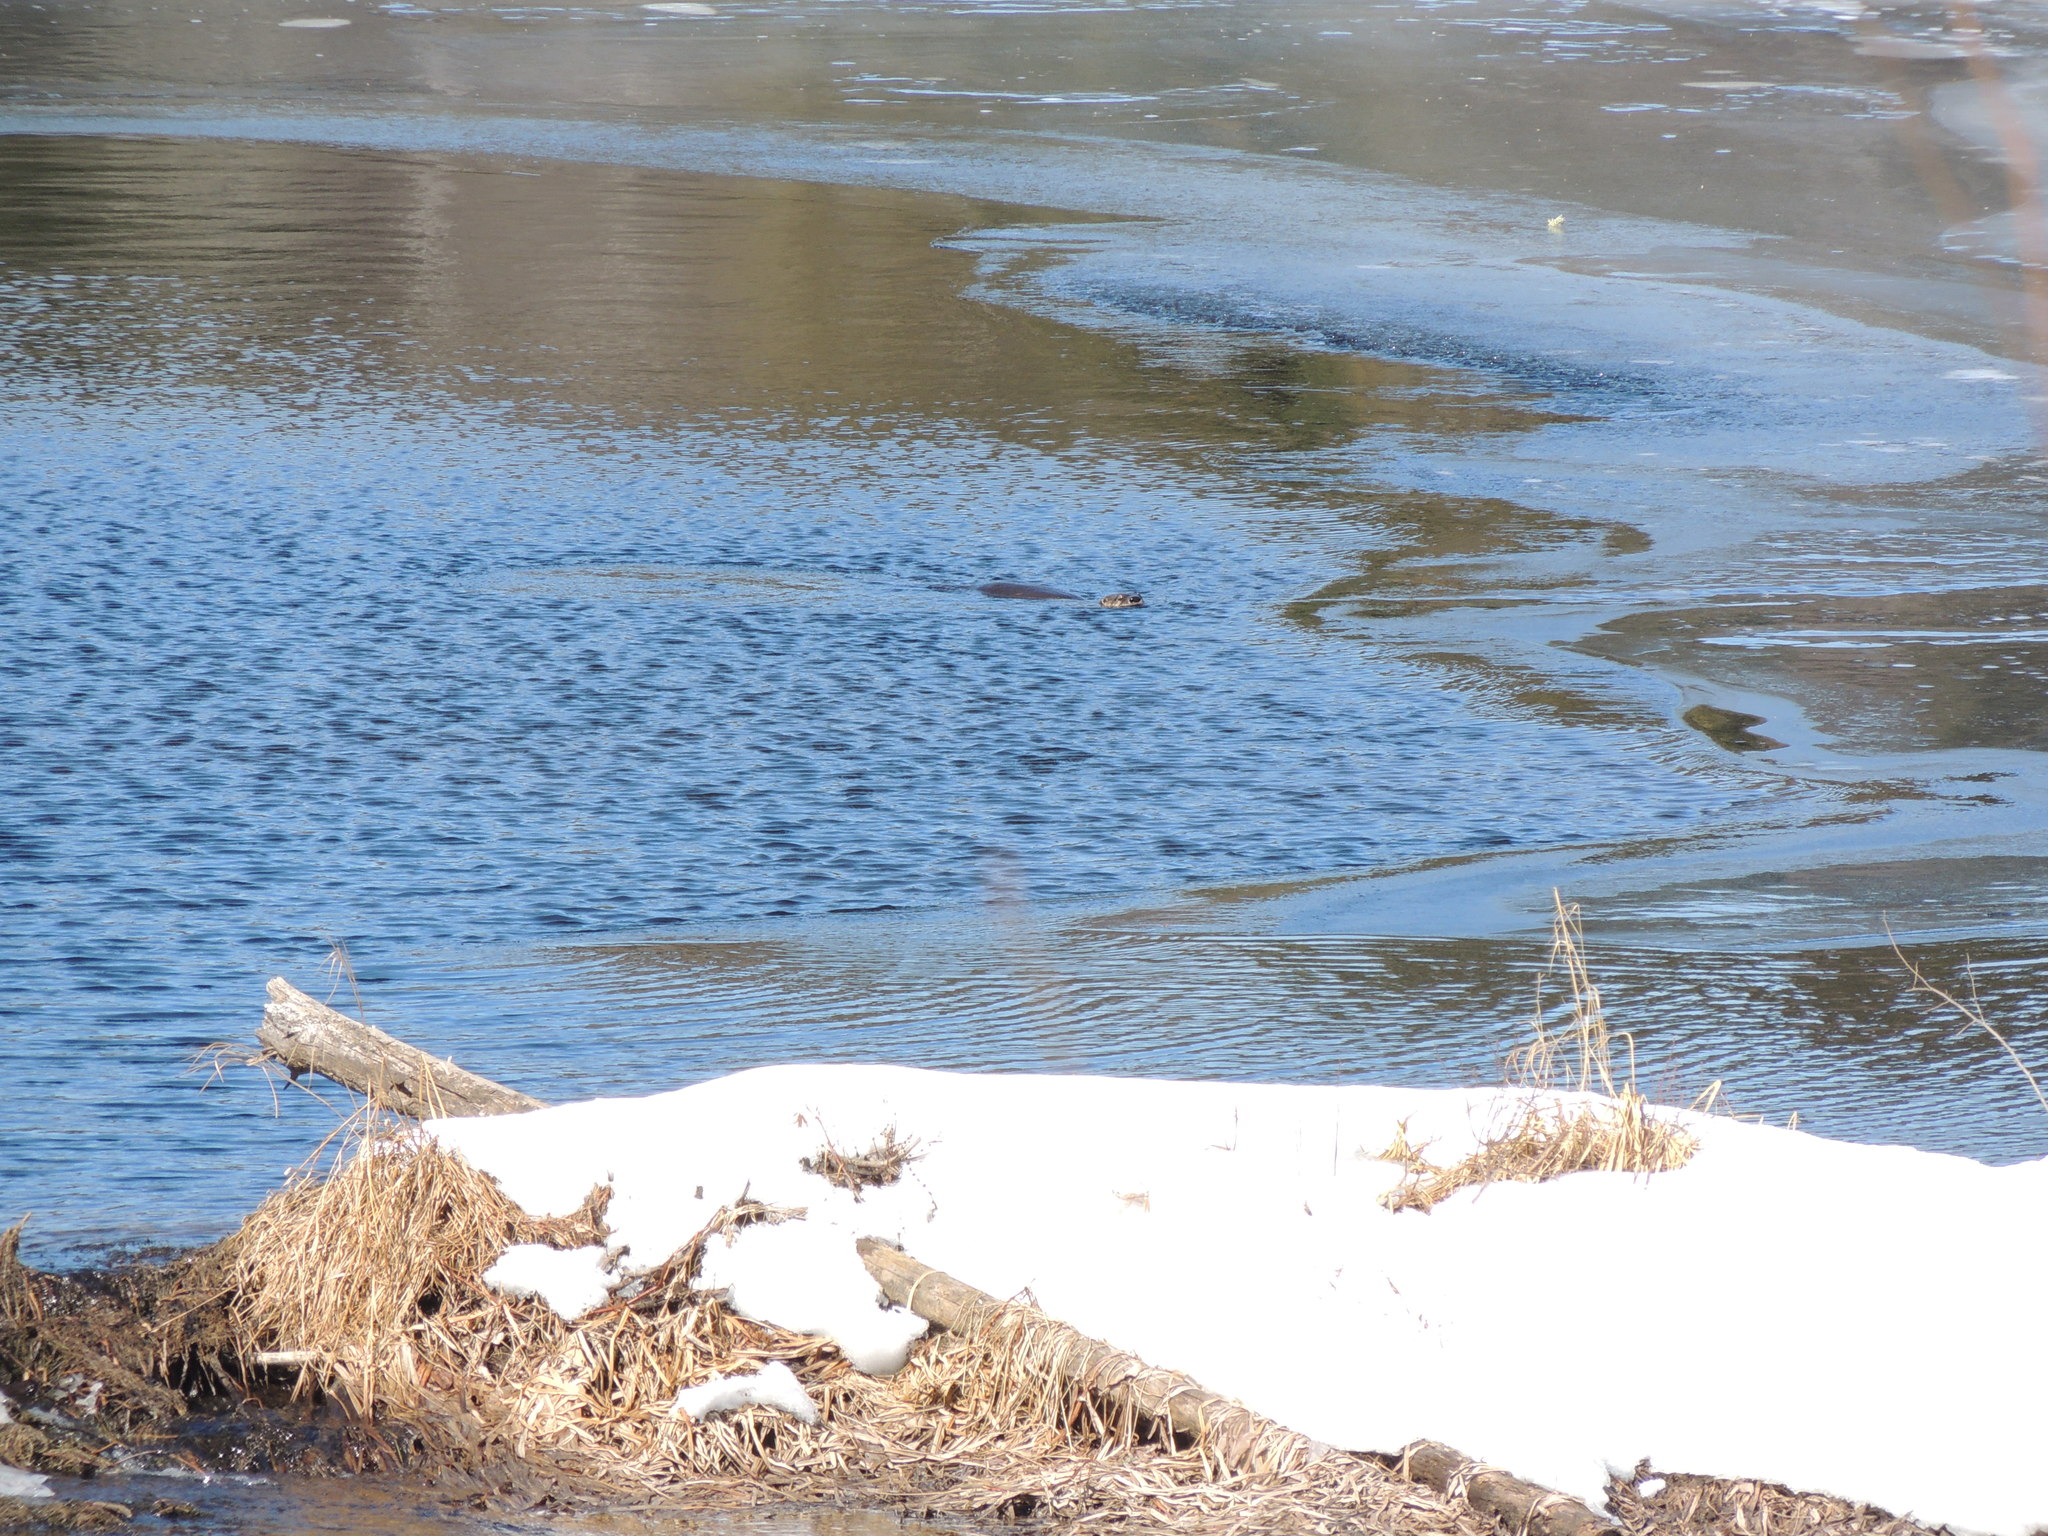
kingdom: Animalia
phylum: Chordata
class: Mammalia
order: Carnivora
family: Mustelidae
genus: Lontra
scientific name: Lontra canadensis
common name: North american river otter
